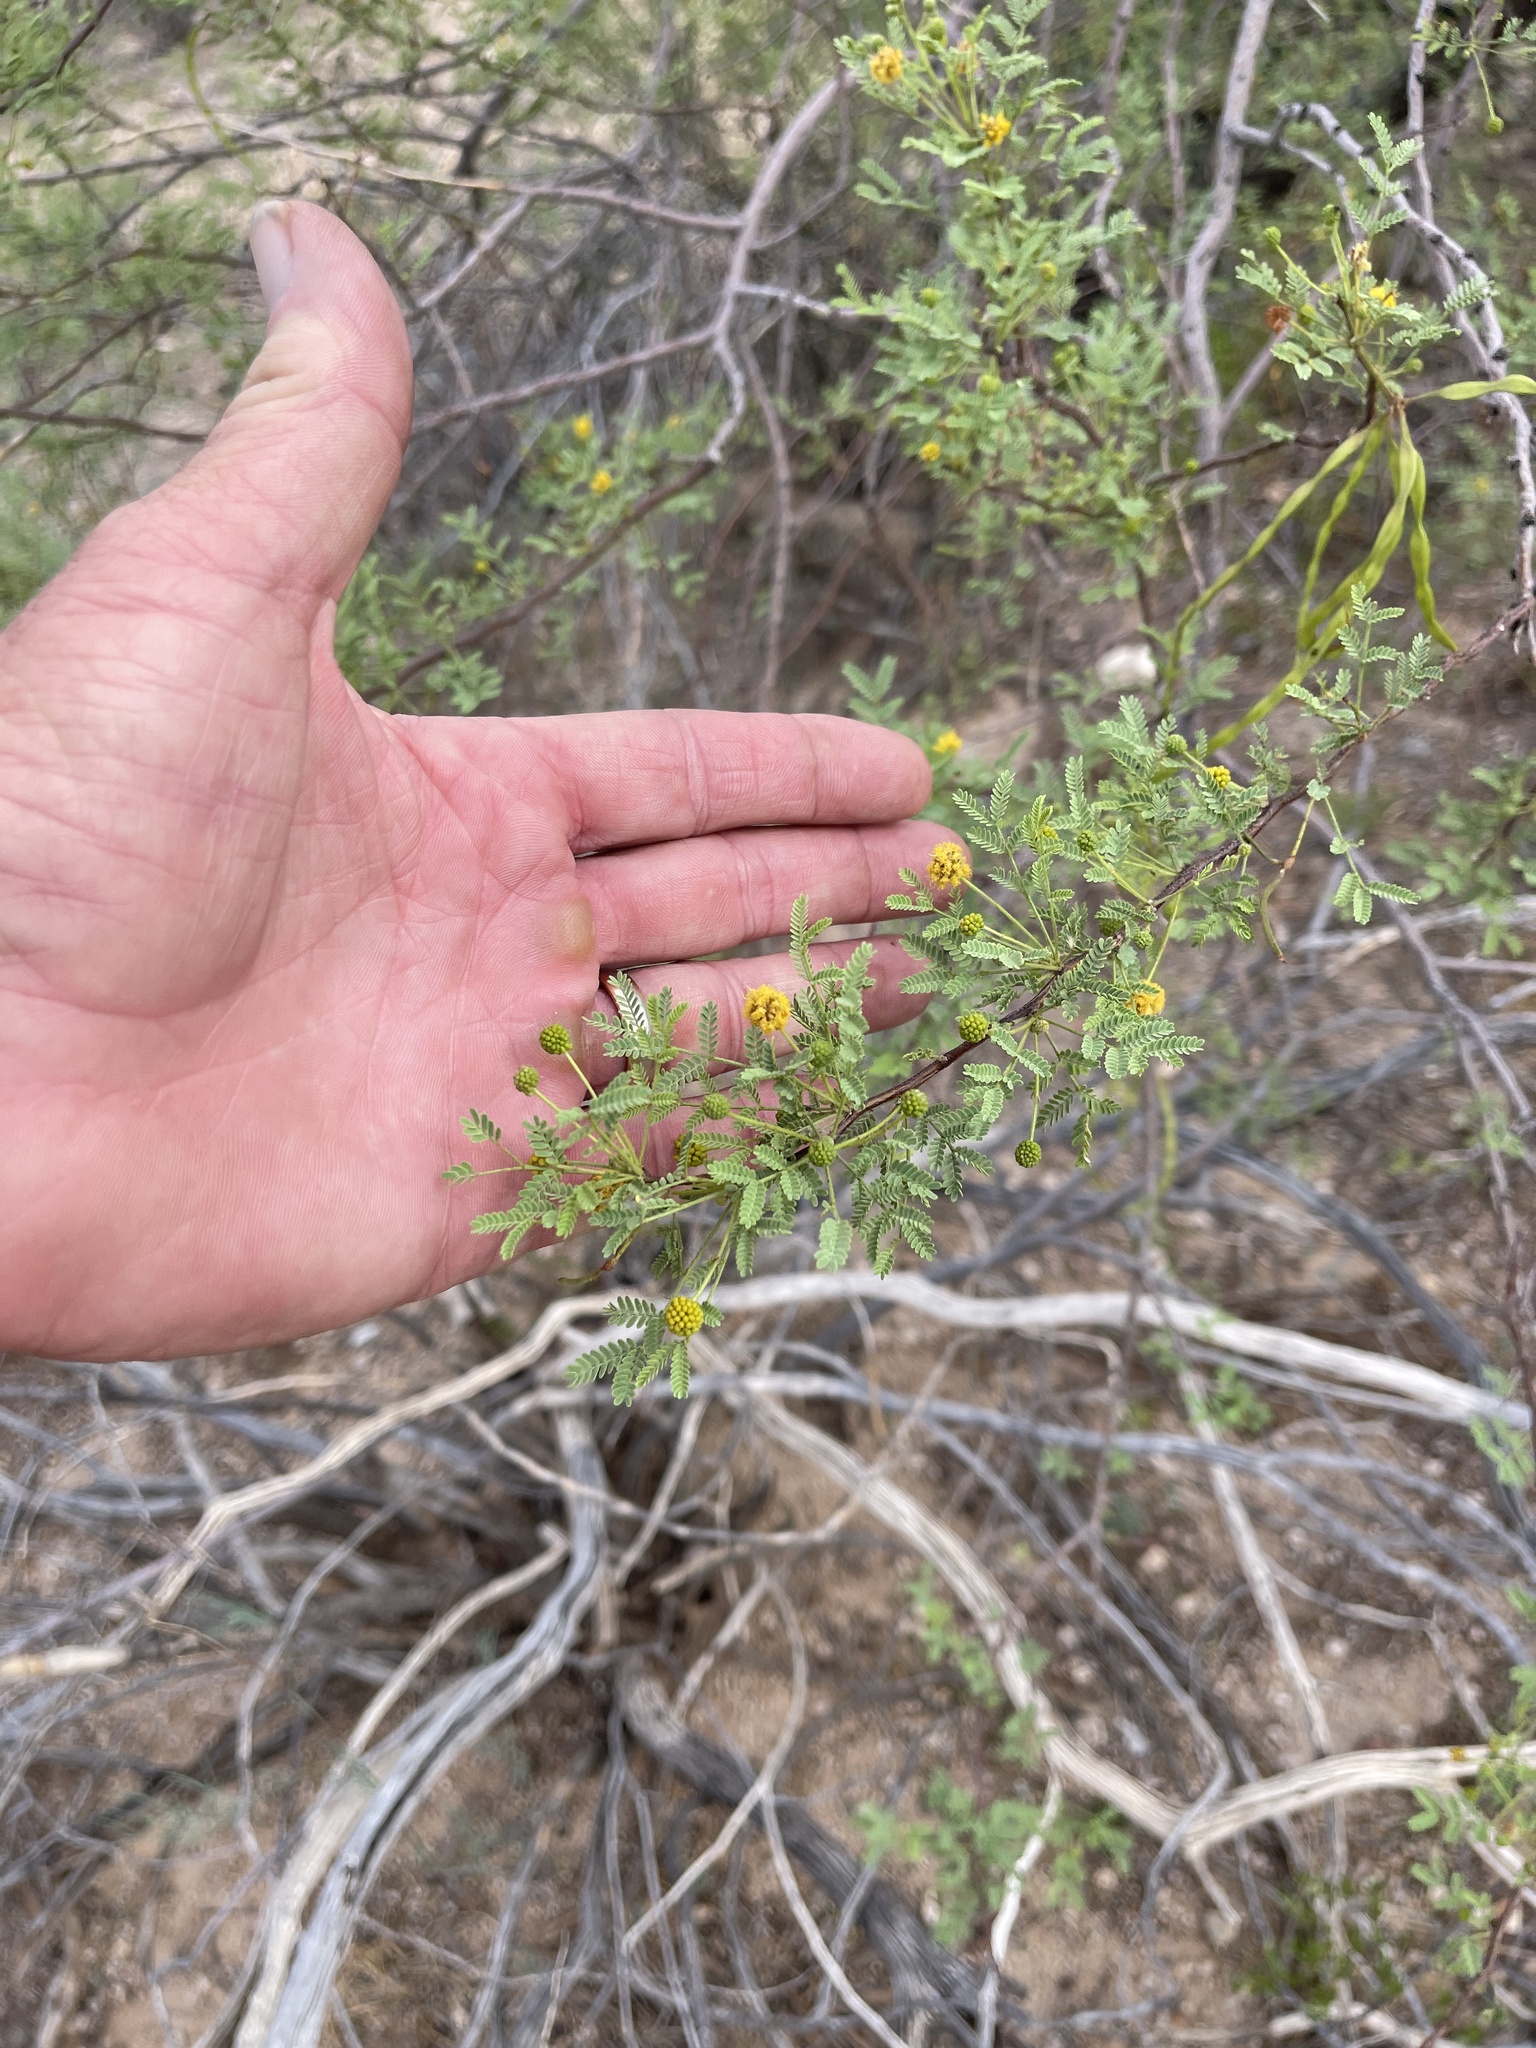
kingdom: Plantae
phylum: Tracheophyta
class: Magnoliopsida
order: Fabales
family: Fabaceae
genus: Vachellia
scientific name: Vachellia constricta
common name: Mescat acacia
